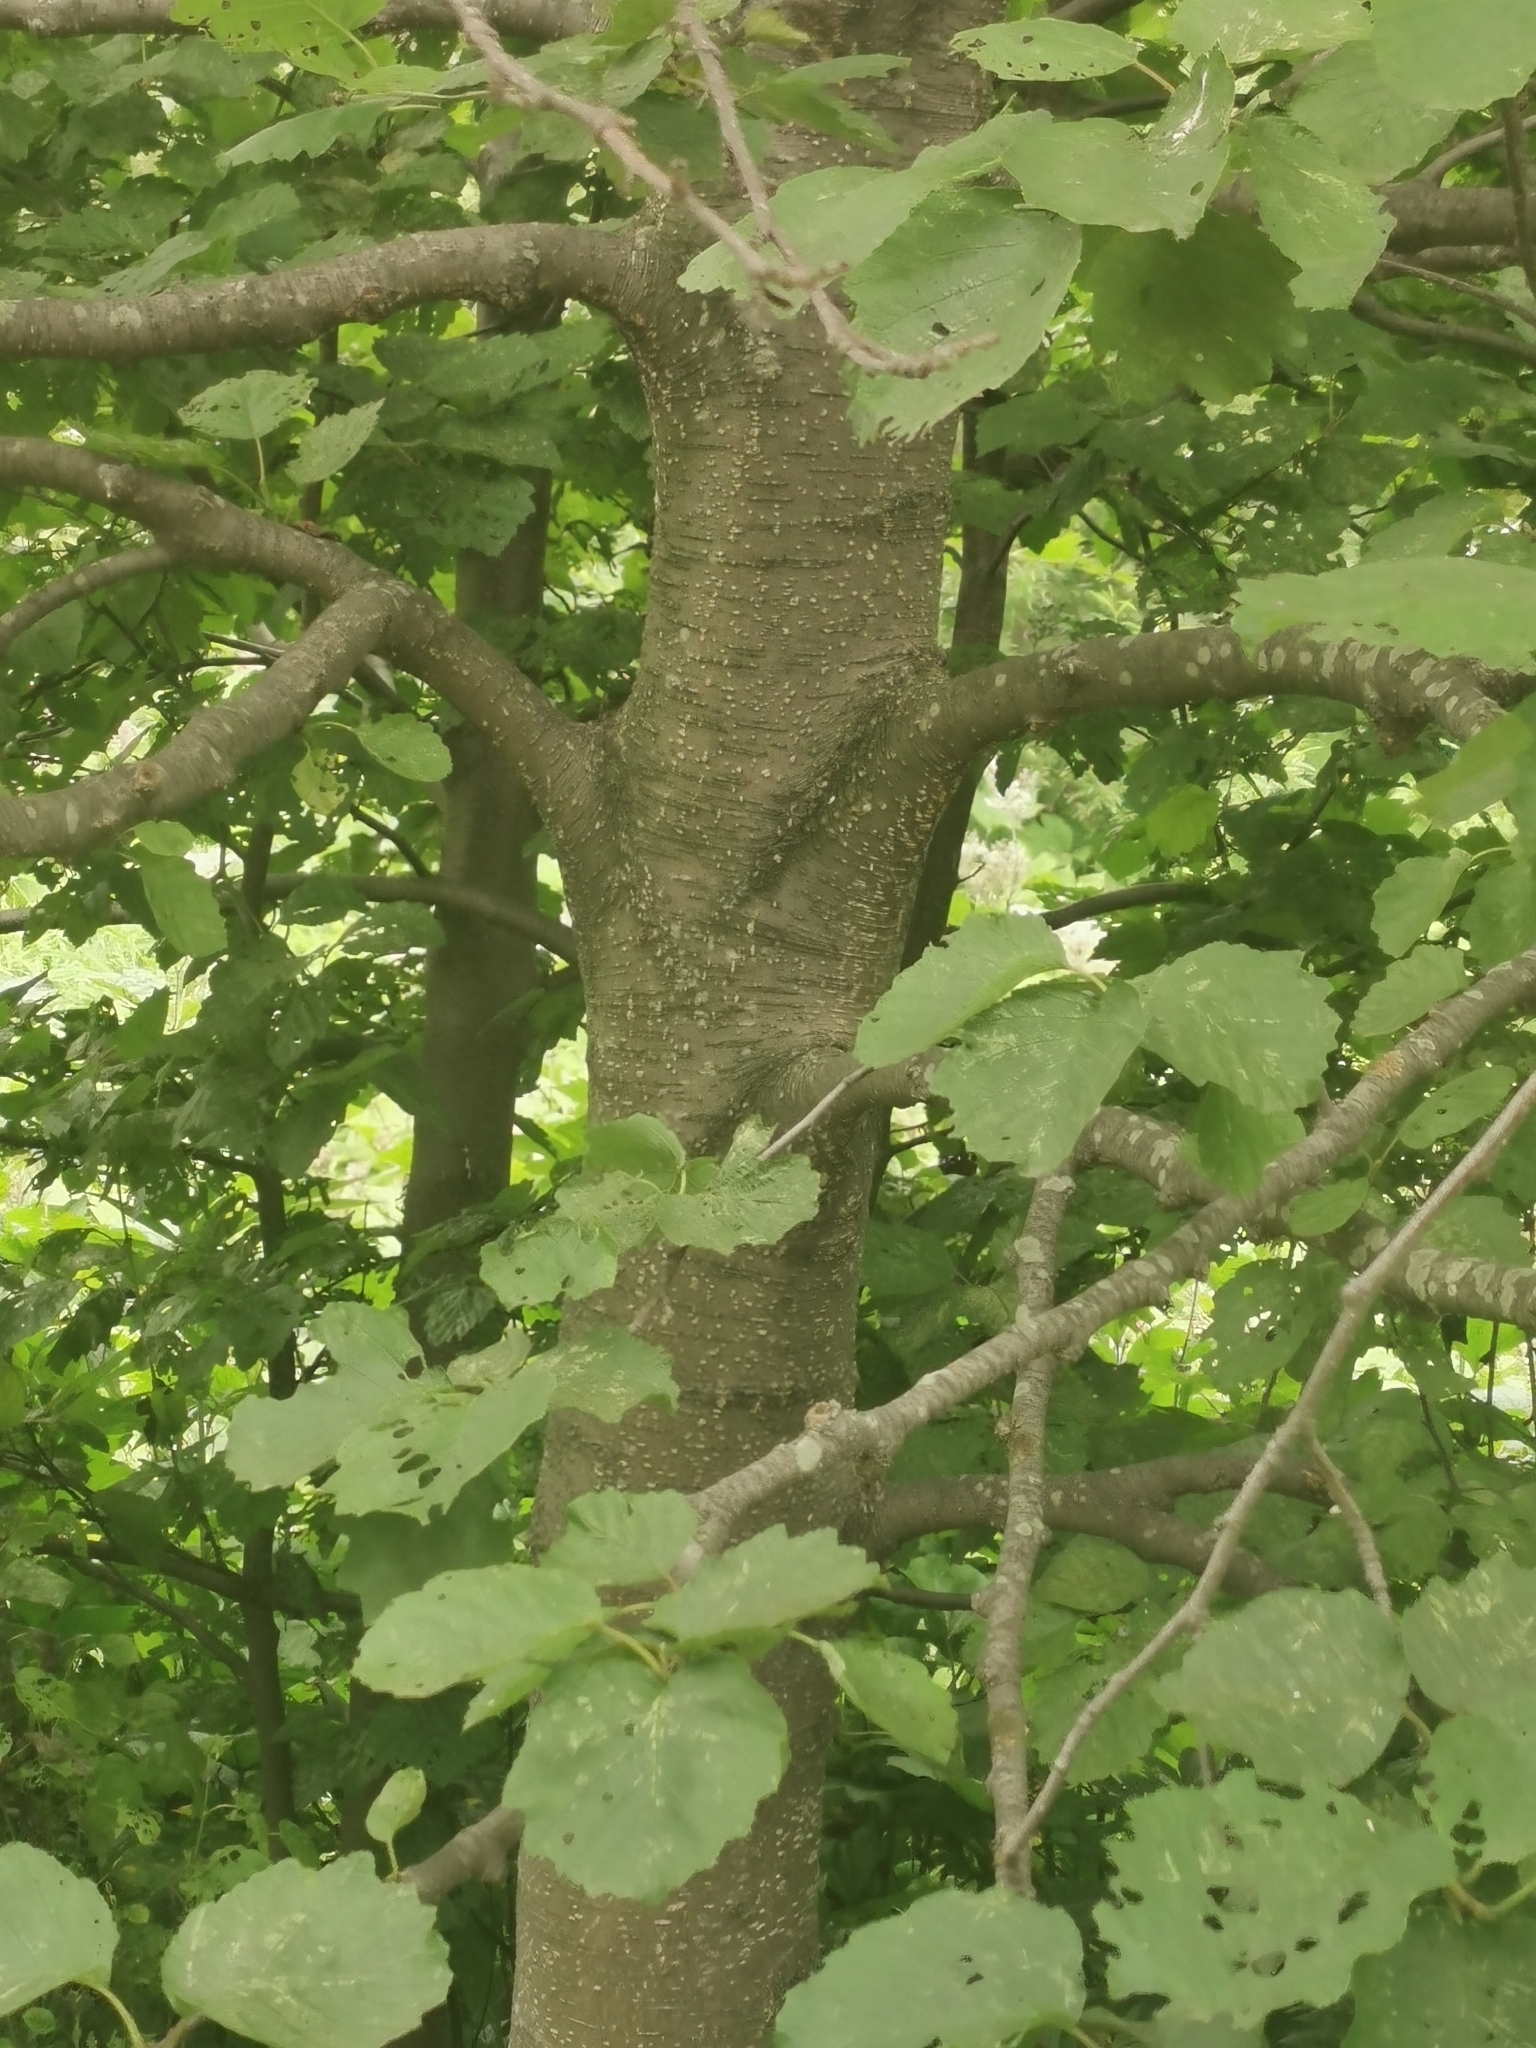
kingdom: Plantae
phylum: Tracheophyta
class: Magnoliopsida
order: Fagales
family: Betulaceae
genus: Alnus
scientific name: Alnus hirsuta
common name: Manchurian alder
